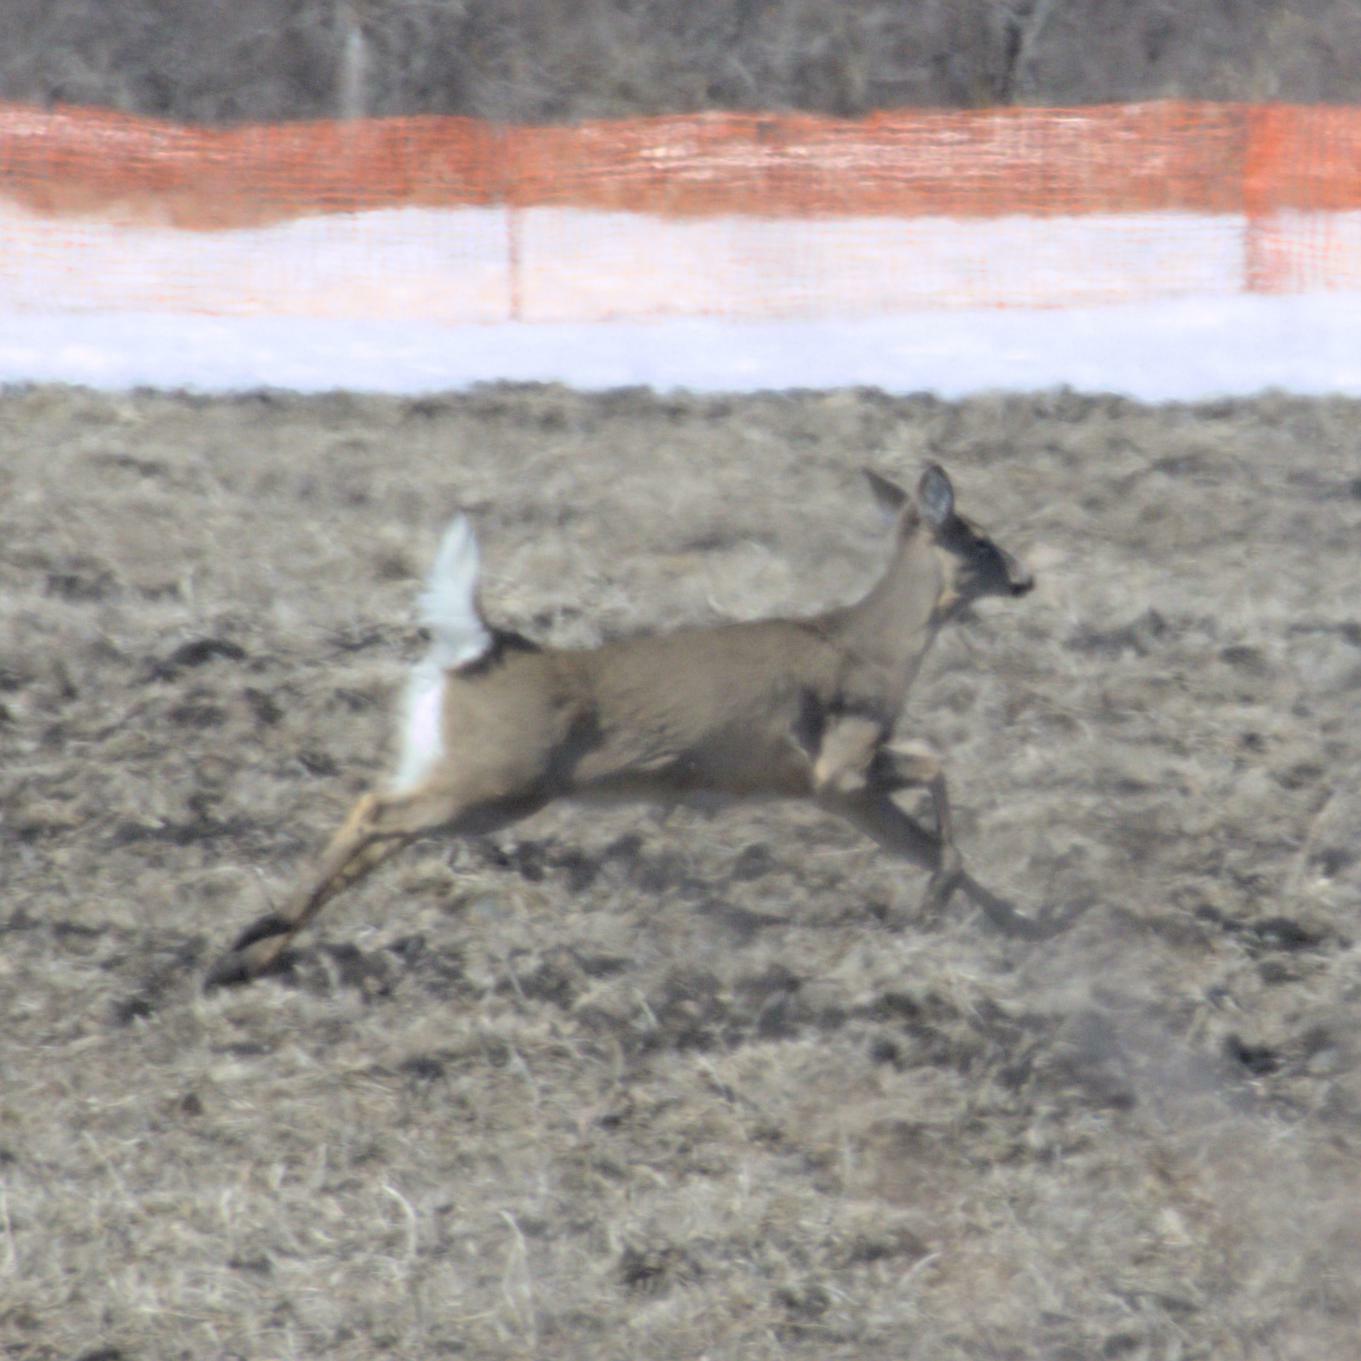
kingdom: Animalia
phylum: Chordata
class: Mammalia
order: Artiodactyla
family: Cervidae
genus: Odocoileus
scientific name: Odocoileus virginianus
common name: White-tailed deer
